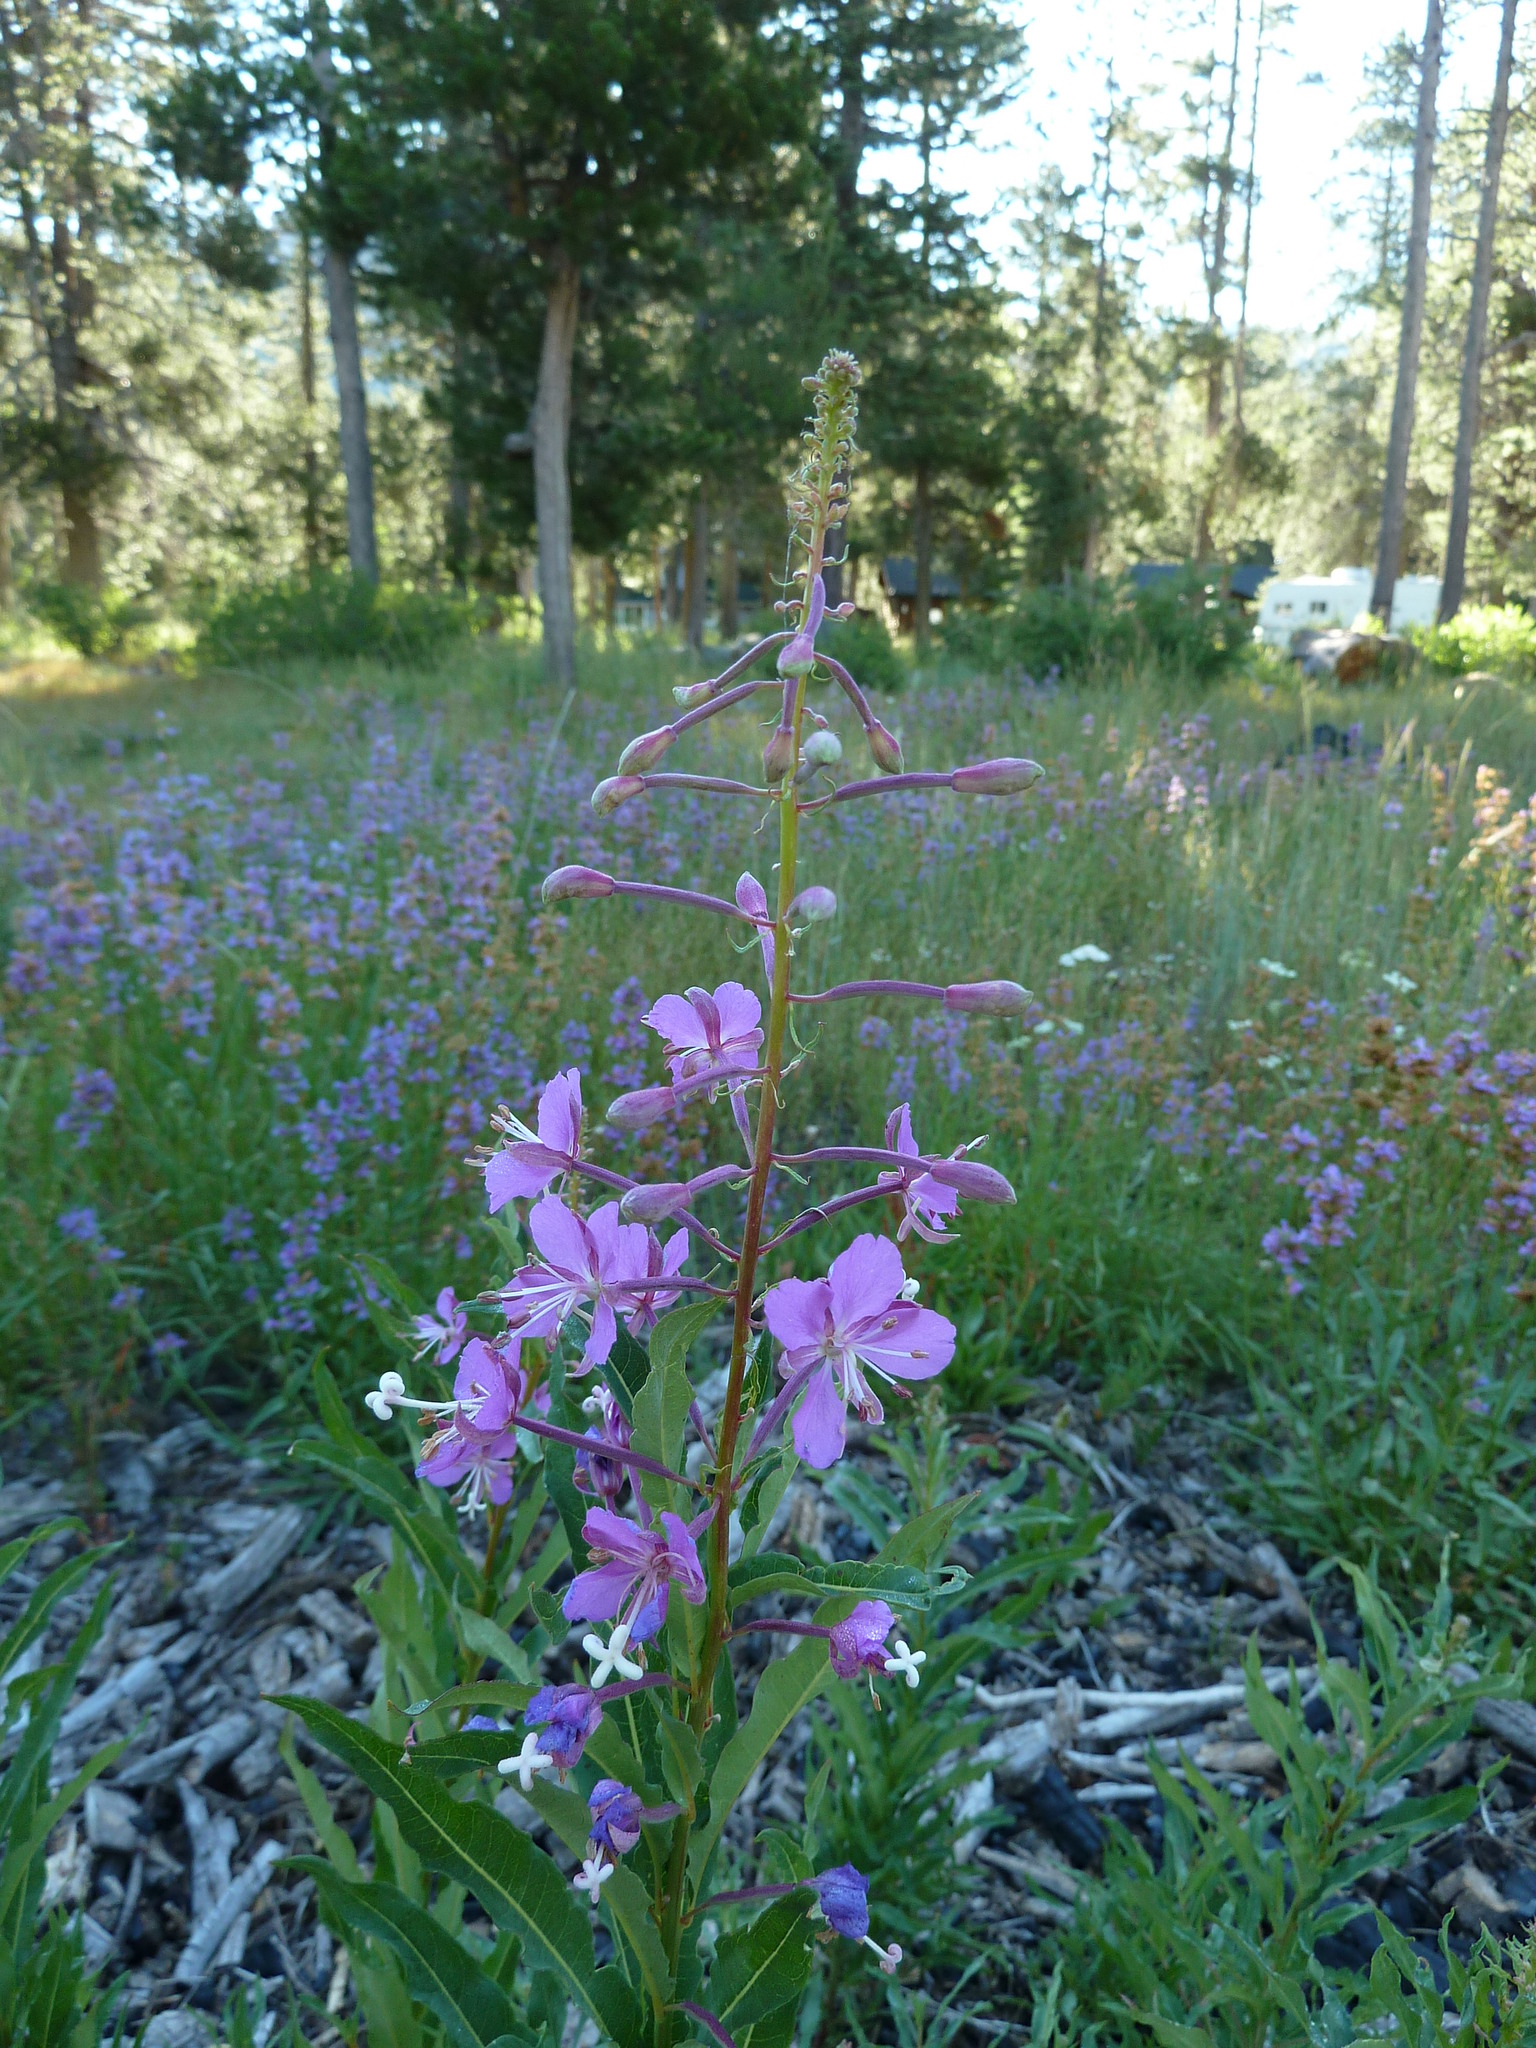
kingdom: Plantae
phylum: Tracheophyta
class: Magnoliopsida
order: Myrtales
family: Onagraceae
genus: Chamaenerion
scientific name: Chamaenerion angustifolium
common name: Fireweed
